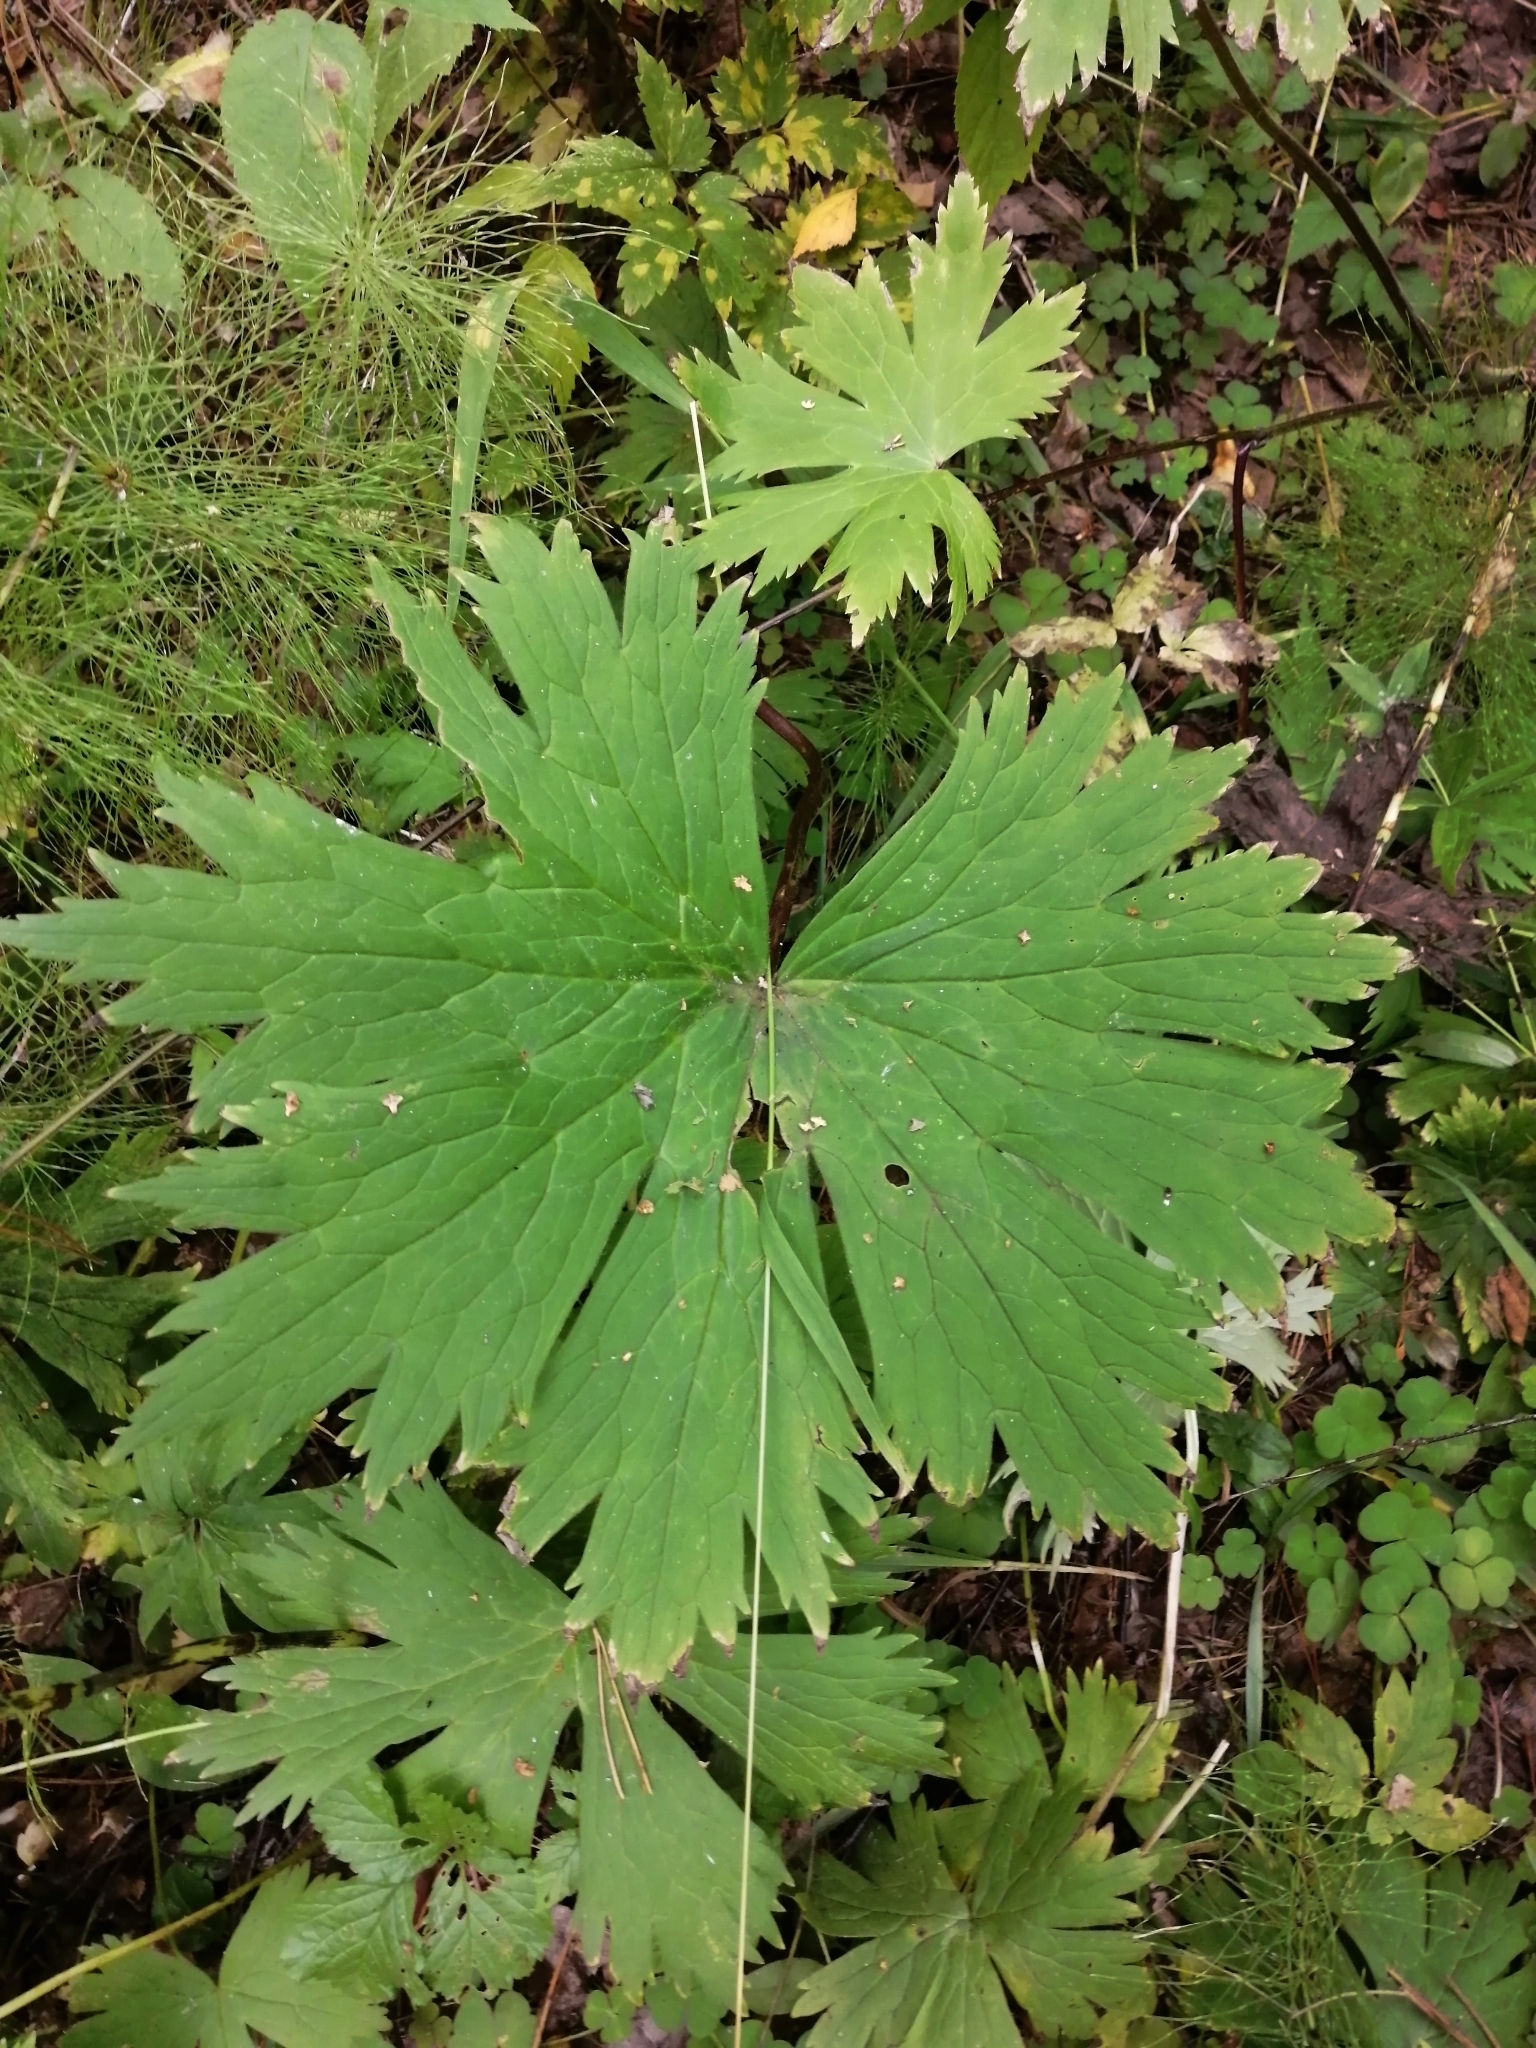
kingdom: Plantae
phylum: Tracheophyta
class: Magnoliopsida
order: Ranunculales
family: Ranunculaceae
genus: Aconitum
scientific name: Aconitum septentrionale
